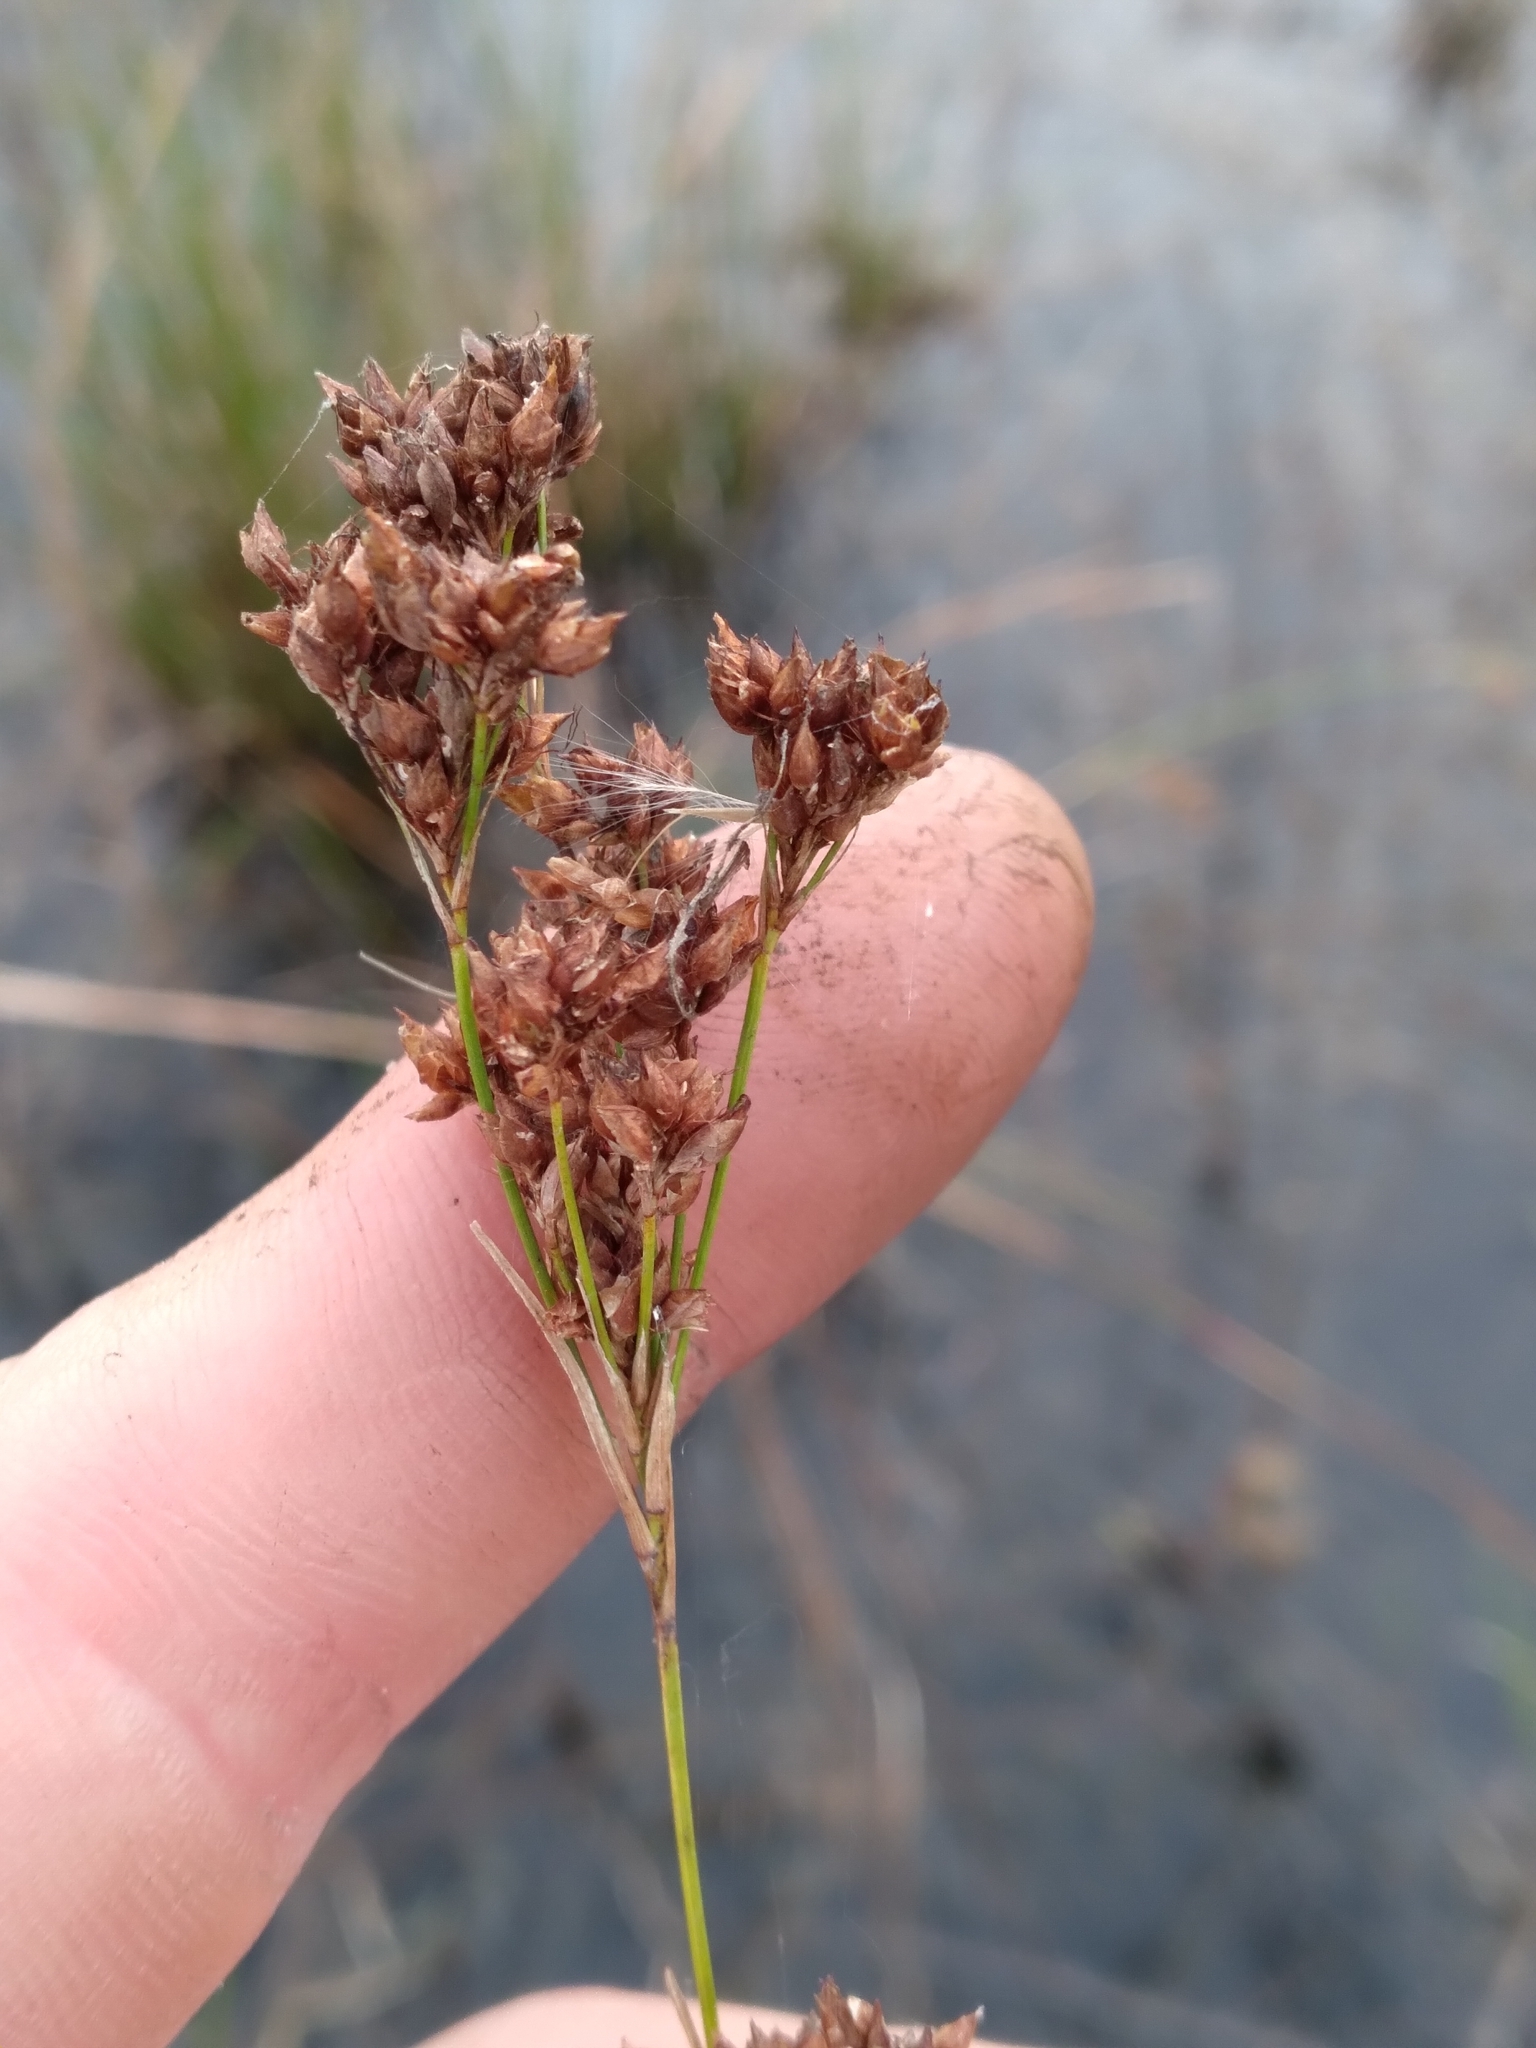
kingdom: Plantae
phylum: Tracheophyta
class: Liliopsida
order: Poales
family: Cyperaceae
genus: Rhynchospora
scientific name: Rhynchospora odorata
